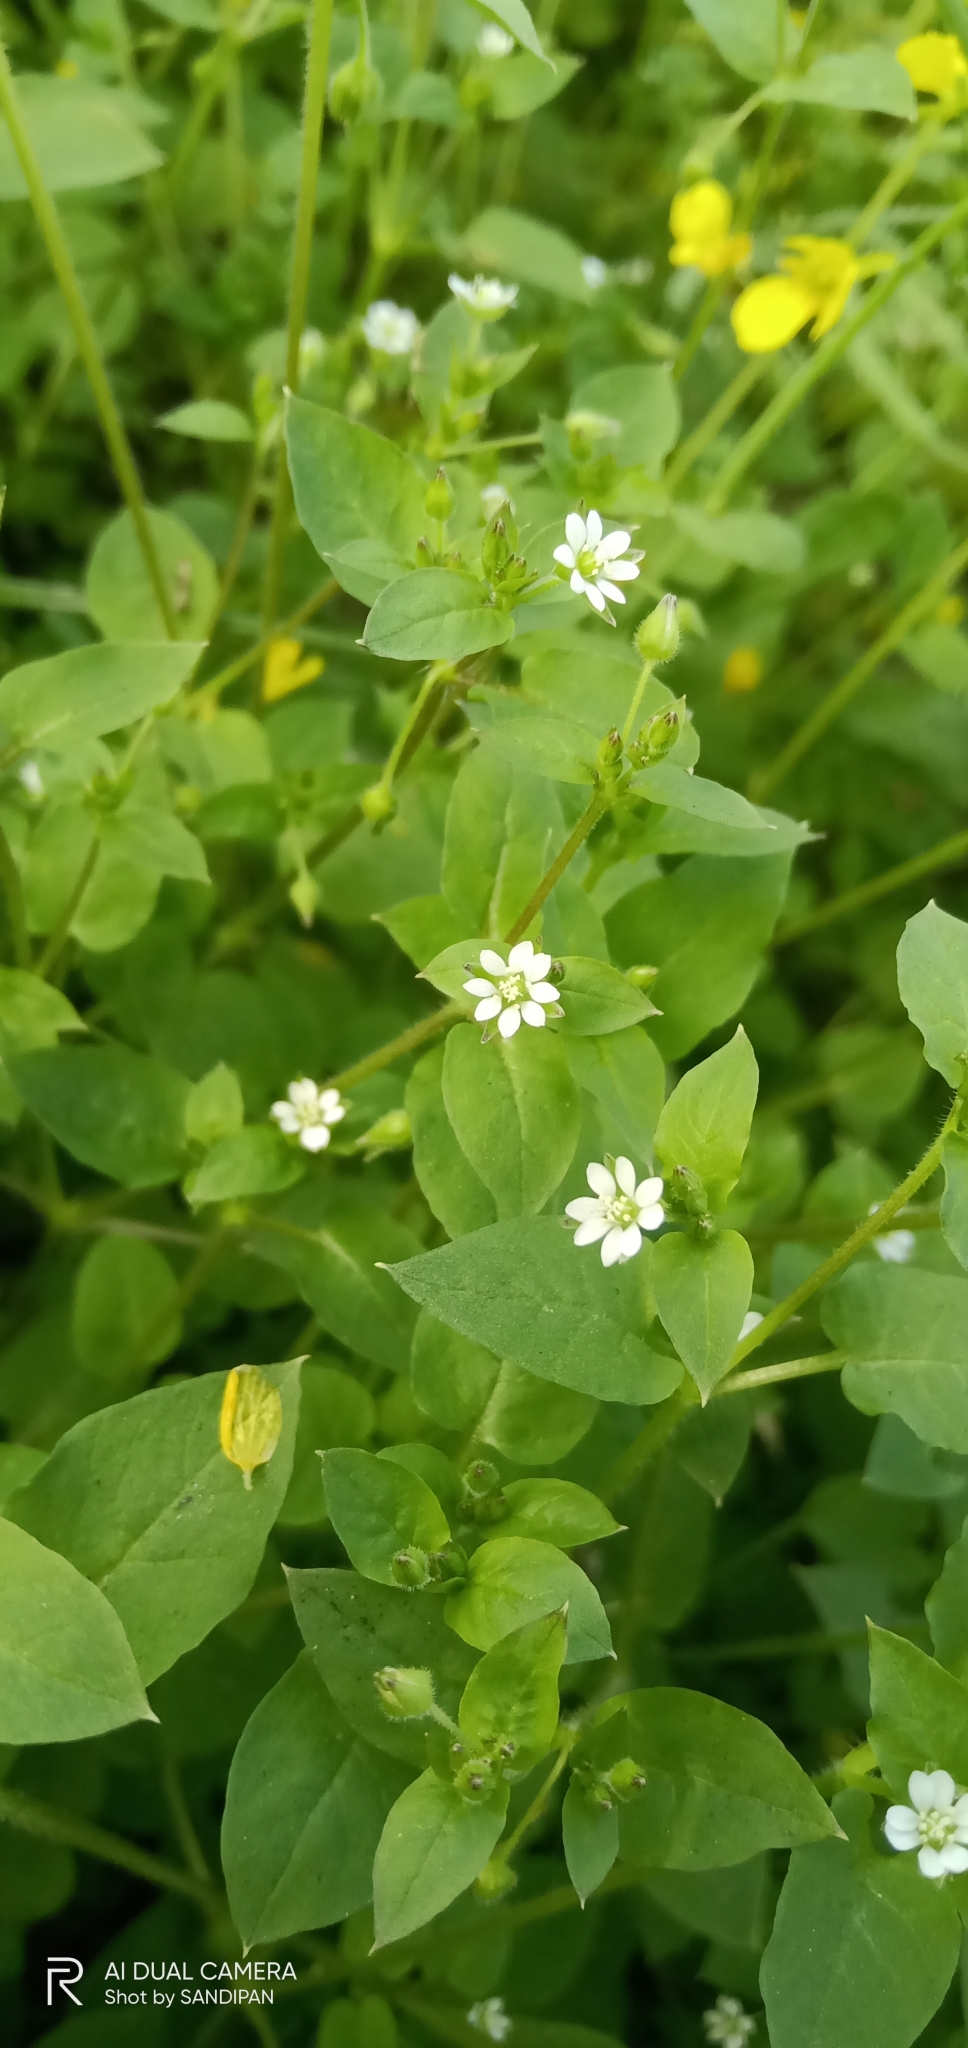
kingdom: Plantae
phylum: Tracheophyta
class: Magnoliopsida
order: Caryophyllales
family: Caryophyllaceae
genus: Stellaria
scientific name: Stellaria aquatica
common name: Water chickweed
